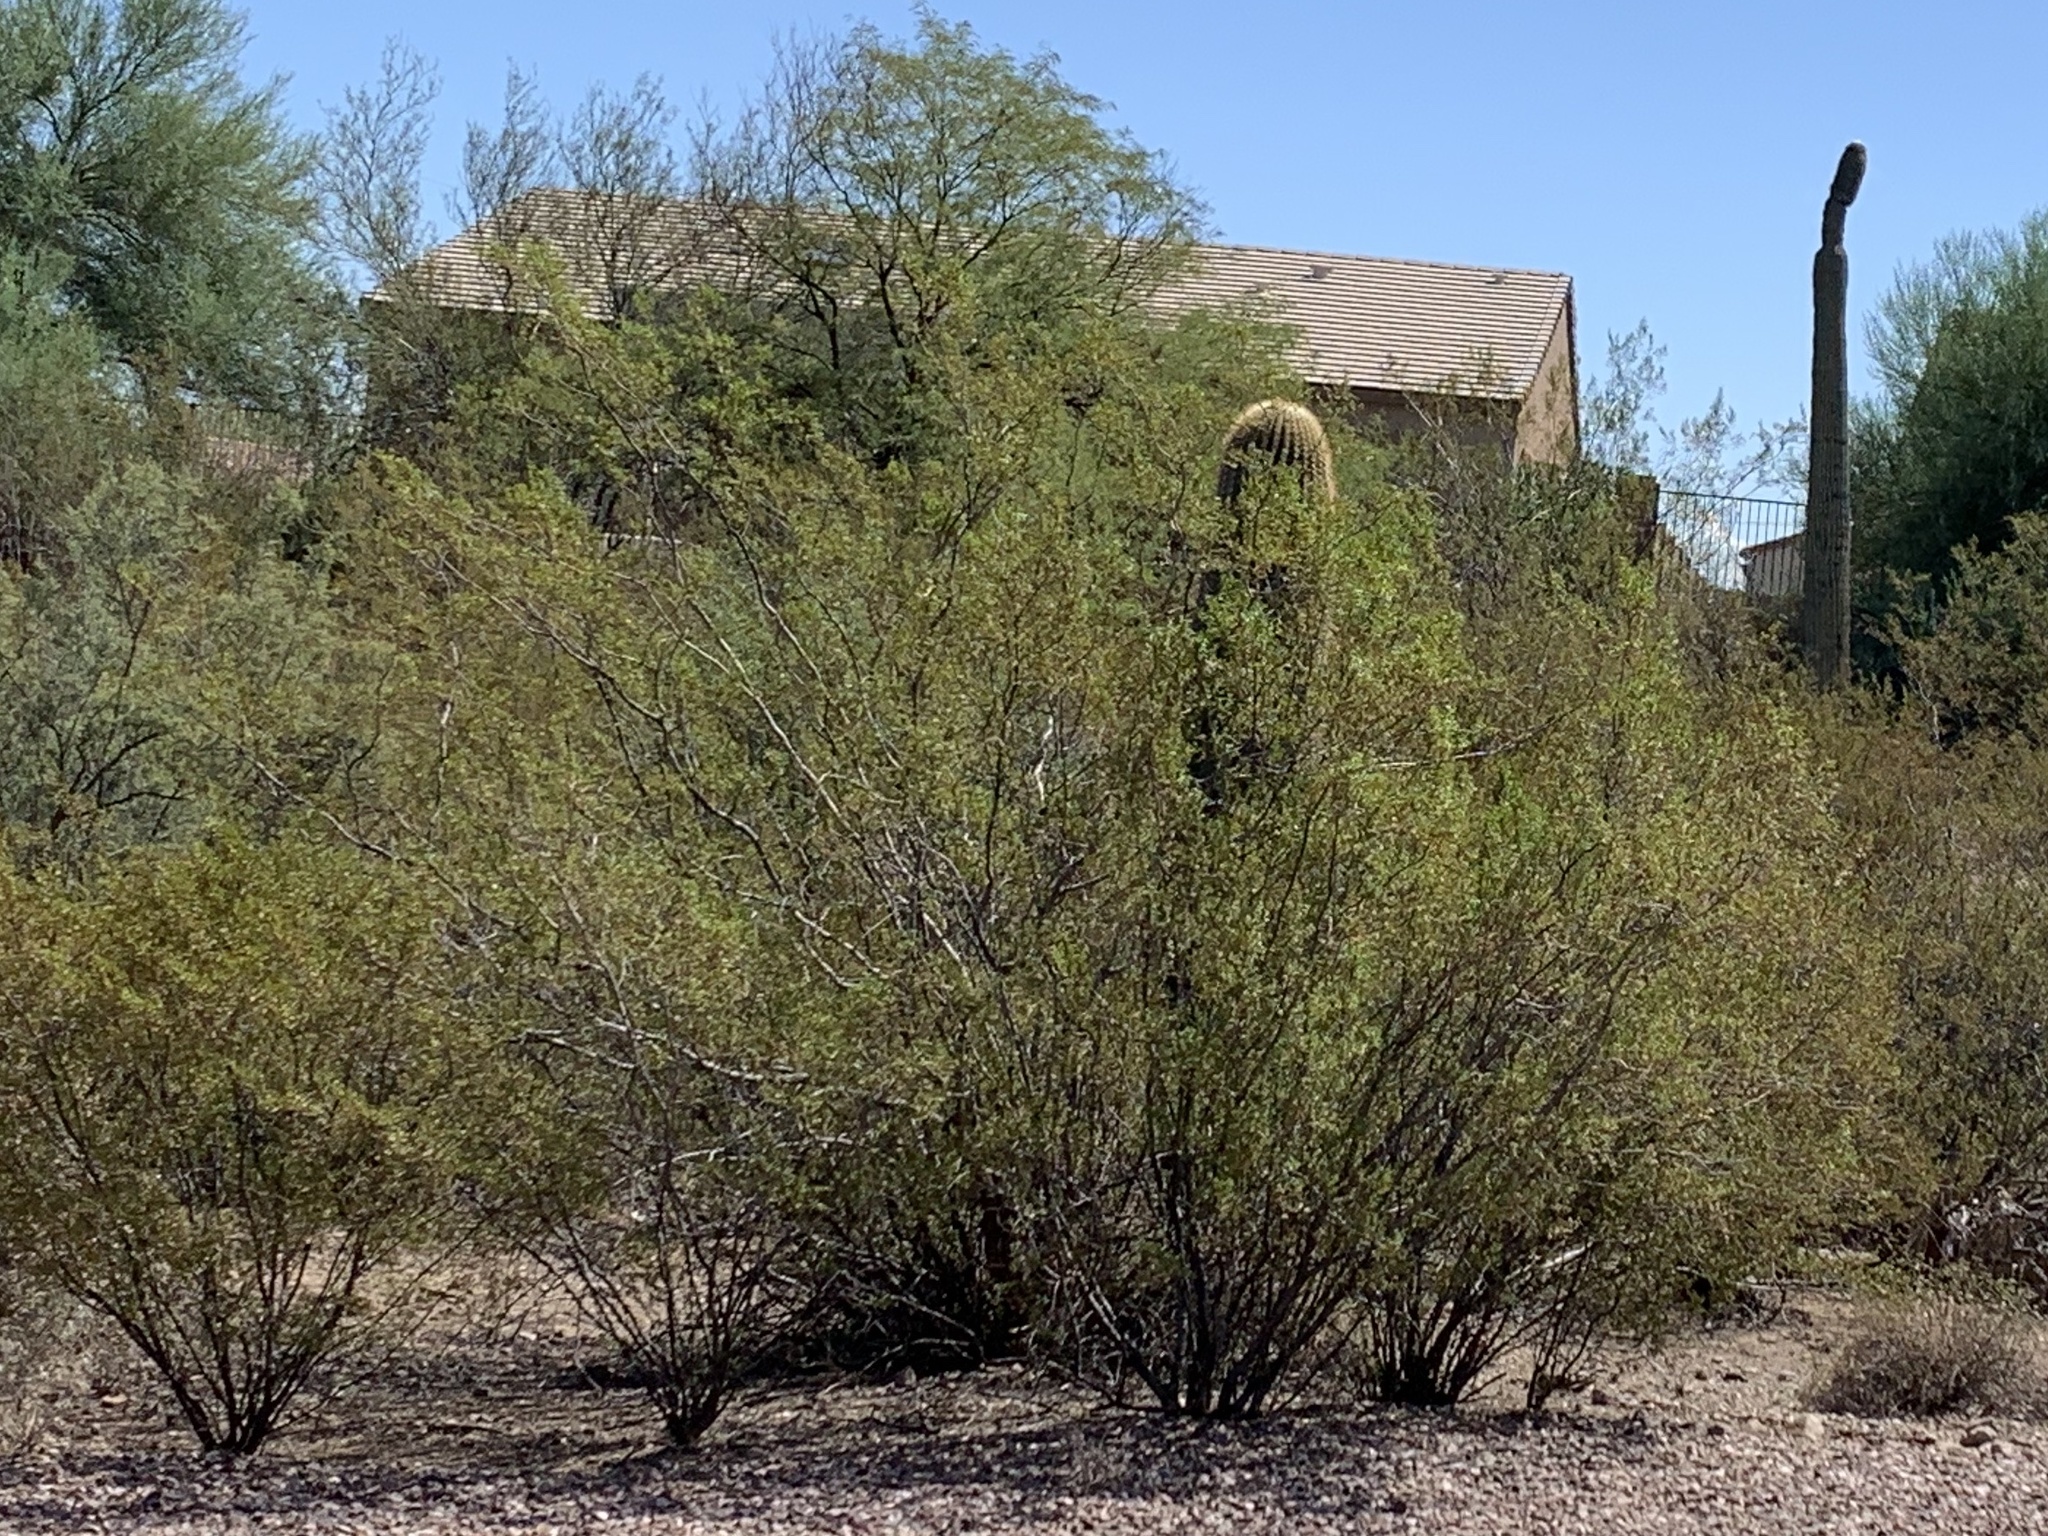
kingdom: Plantae
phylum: Tracheophyta
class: Magnoliopsida
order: Zygophyllales
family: Zygophyllaceae
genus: Larrea
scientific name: Larrea tridentata
